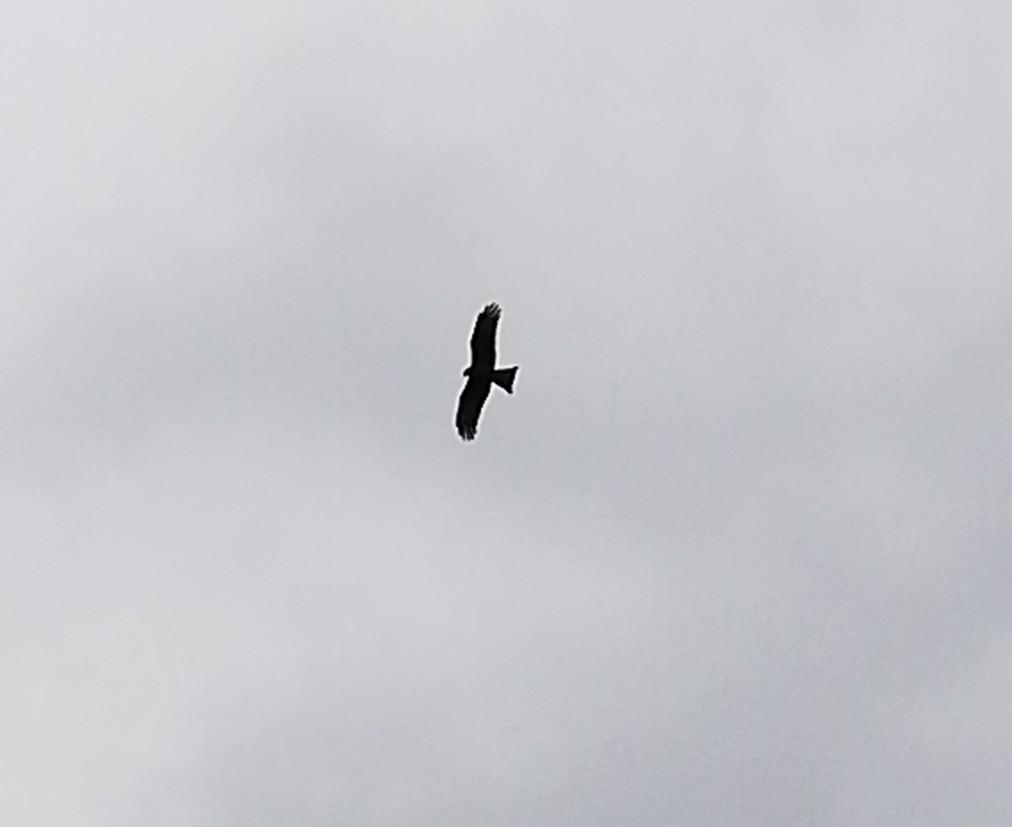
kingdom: Animalia
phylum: Chordata
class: Aves
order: Accipitriformes
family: Accipitridae
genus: Milvus
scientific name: Milvus migrans
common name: Black kite
